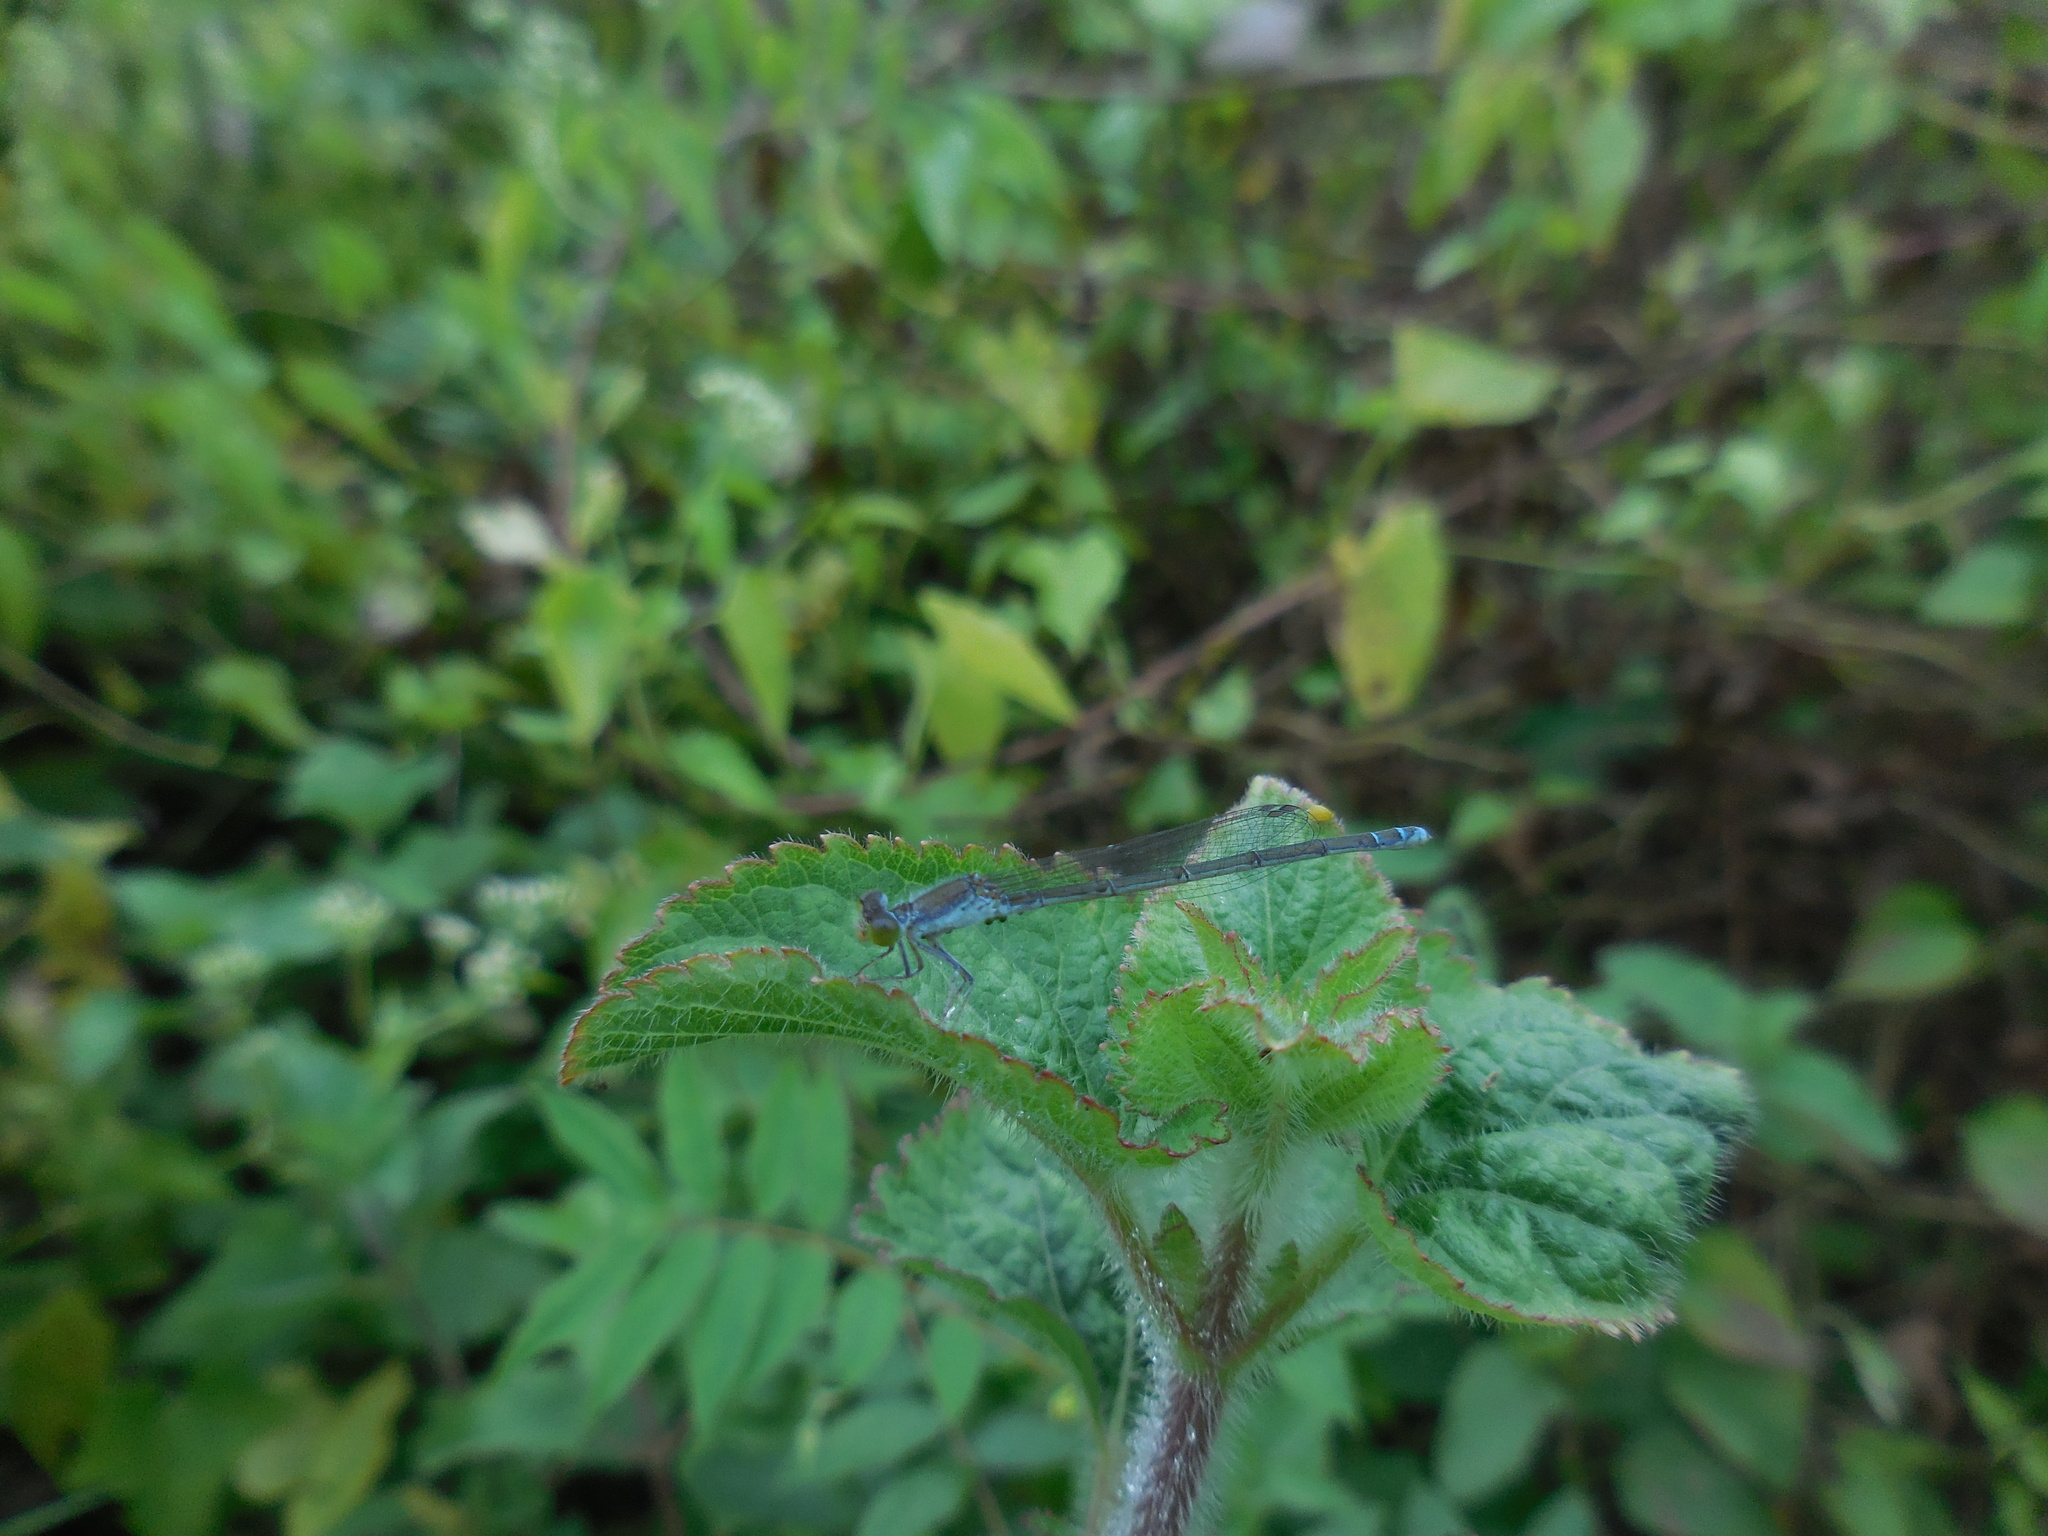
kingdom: Animalia
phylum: Arthropoda
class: Insecta
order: Odonata
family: Coenagrionidae
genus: Paracercion
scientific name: Paracercion calamorum
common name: Dusky lilysquatter
